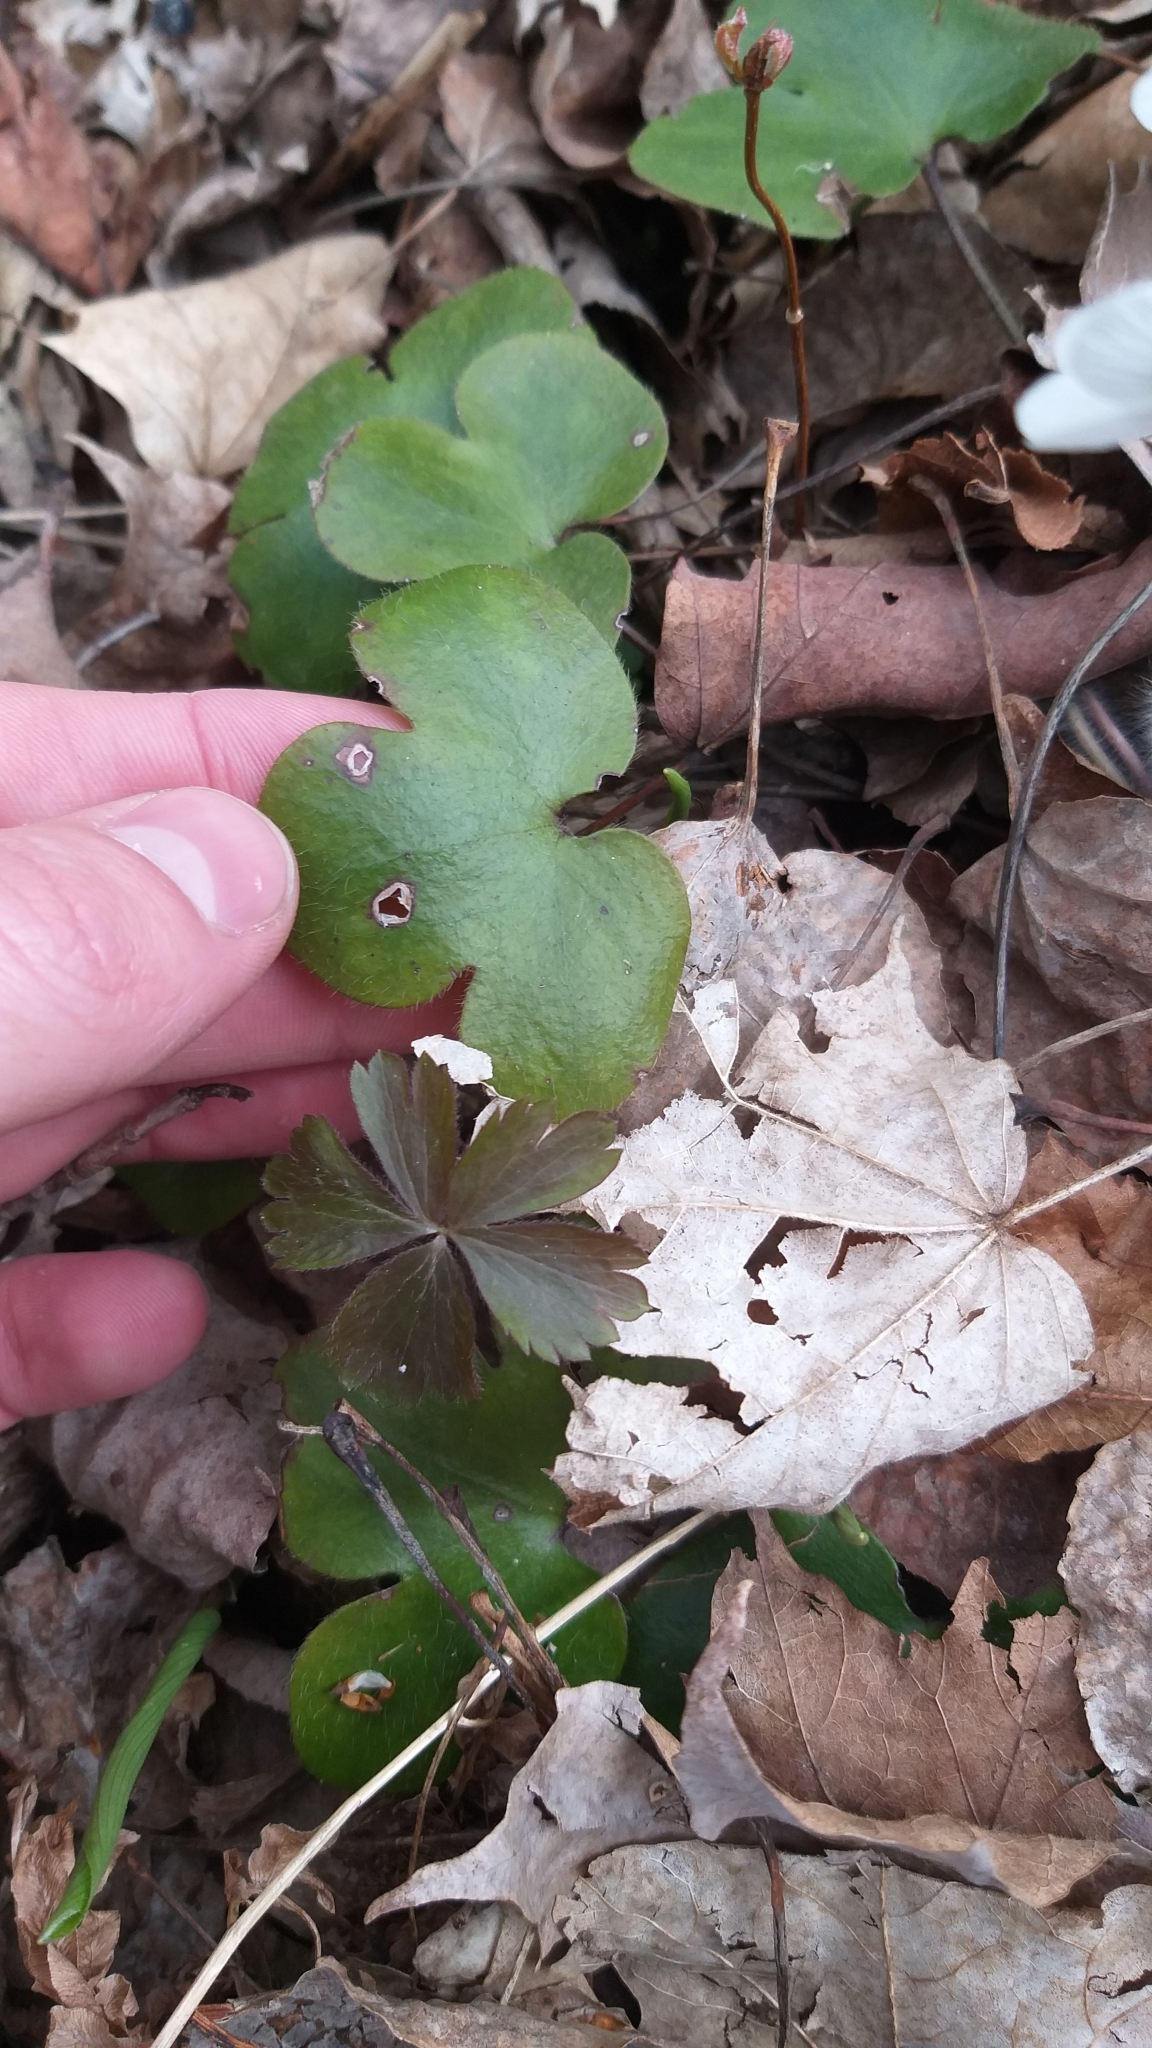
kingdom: Plantae
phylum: Tracheophyta
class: Magnoliopsida
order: Ranunculales
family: Ranunculaceae
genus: Hepatica
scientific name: Hepatica americana
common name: American hepatica
